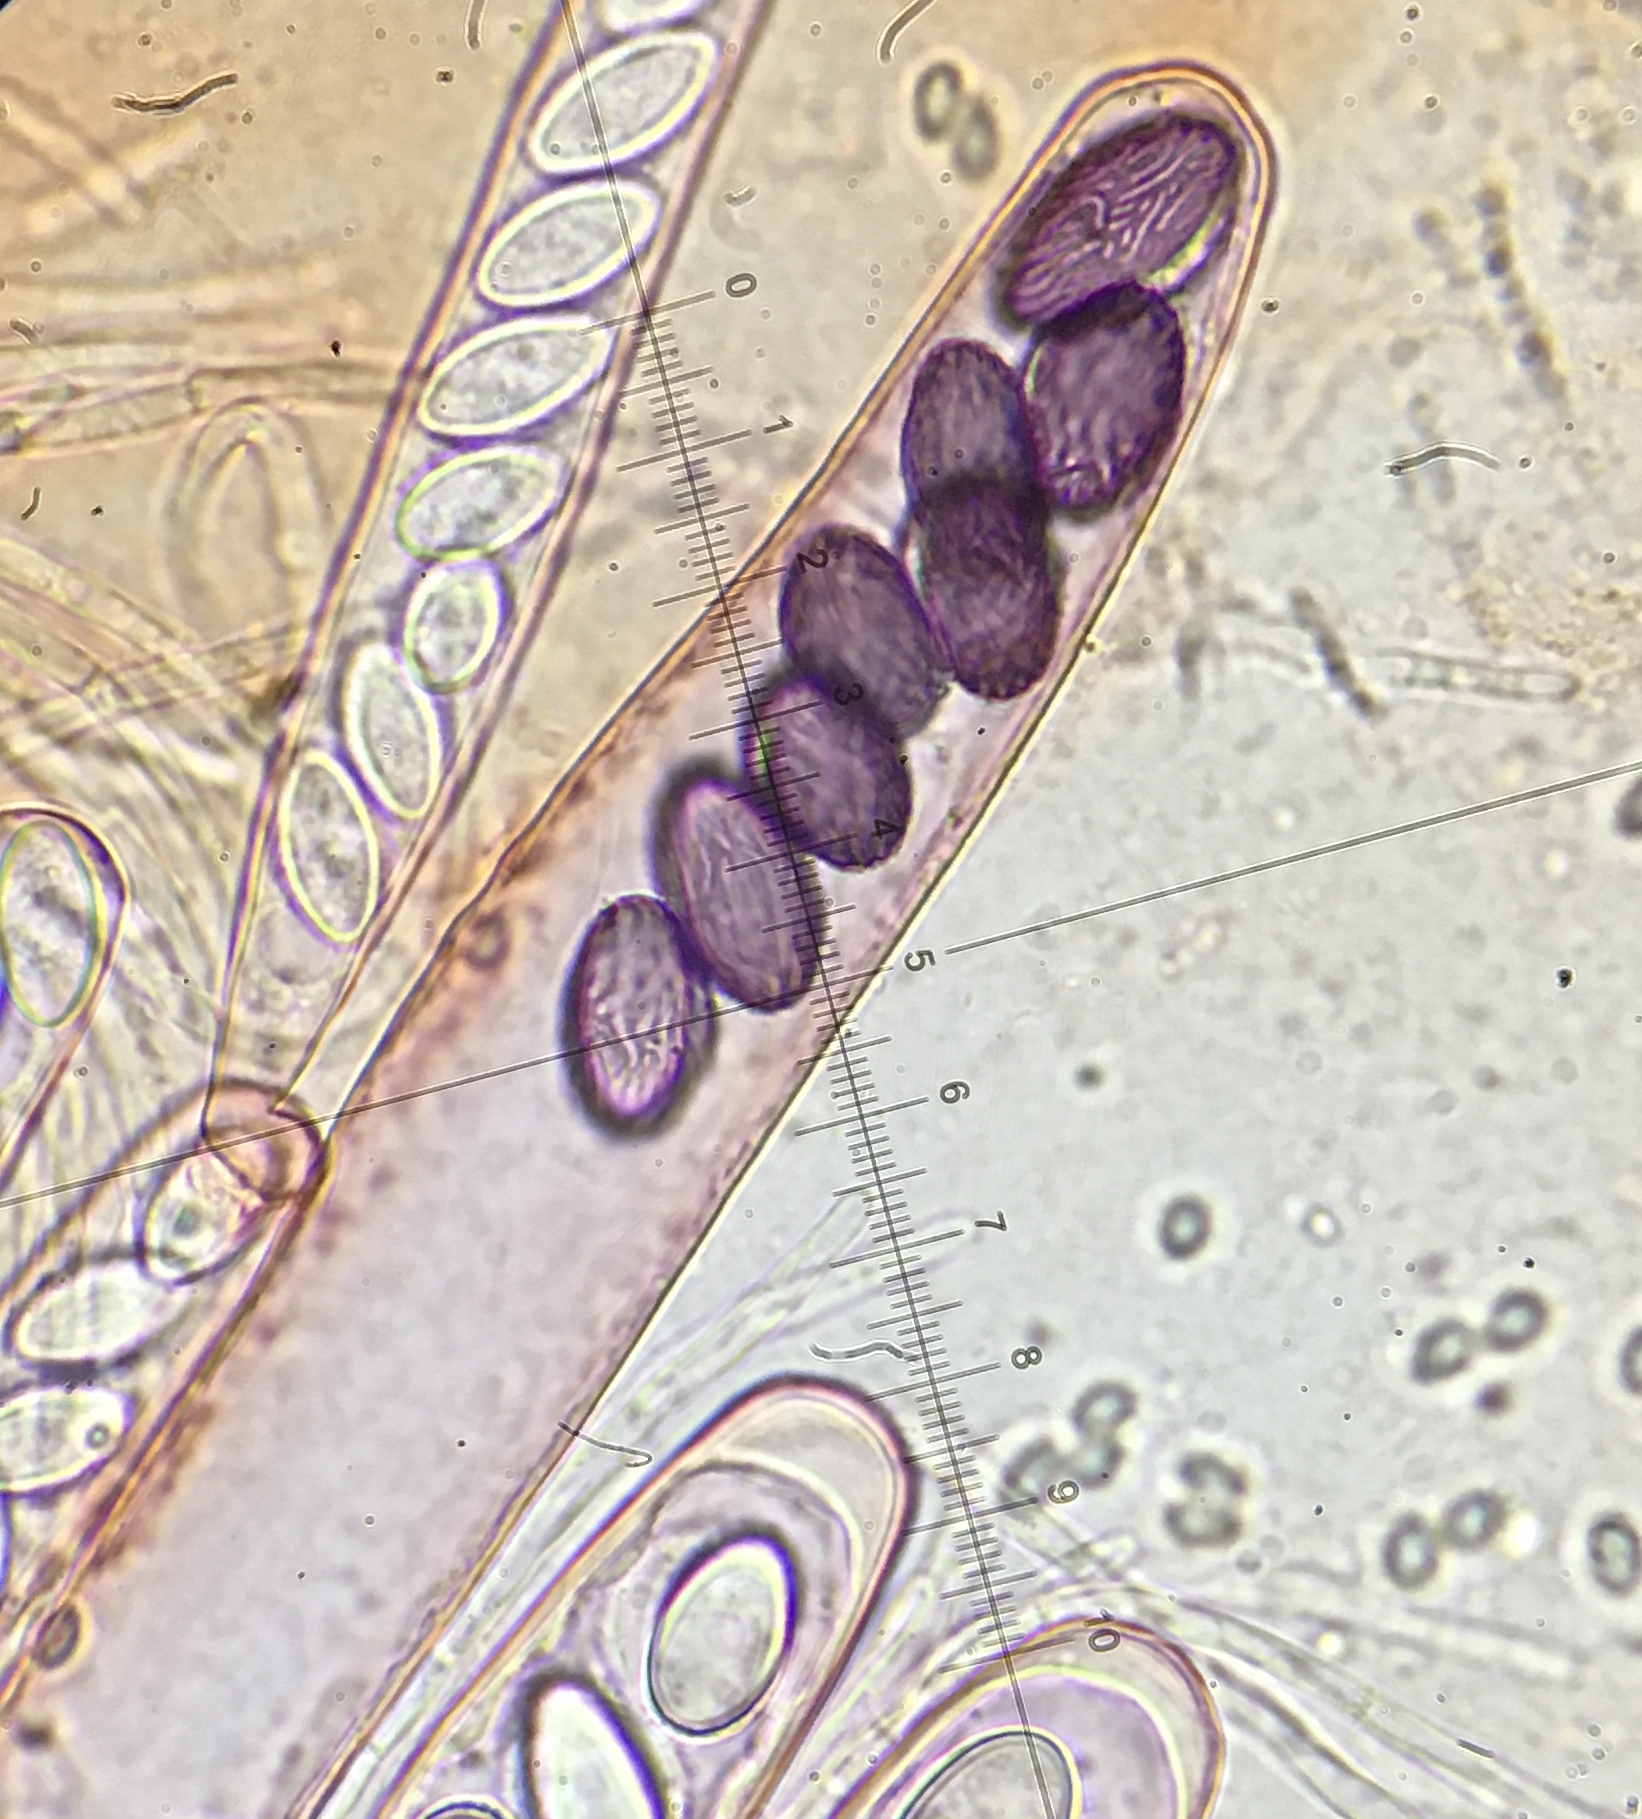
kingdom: Fungi
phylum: Ascomycota
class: Pezizomycetes
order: Pezizales
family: Ascobolaceae
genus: Ascobolus
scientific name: Ascobolus michaudii
